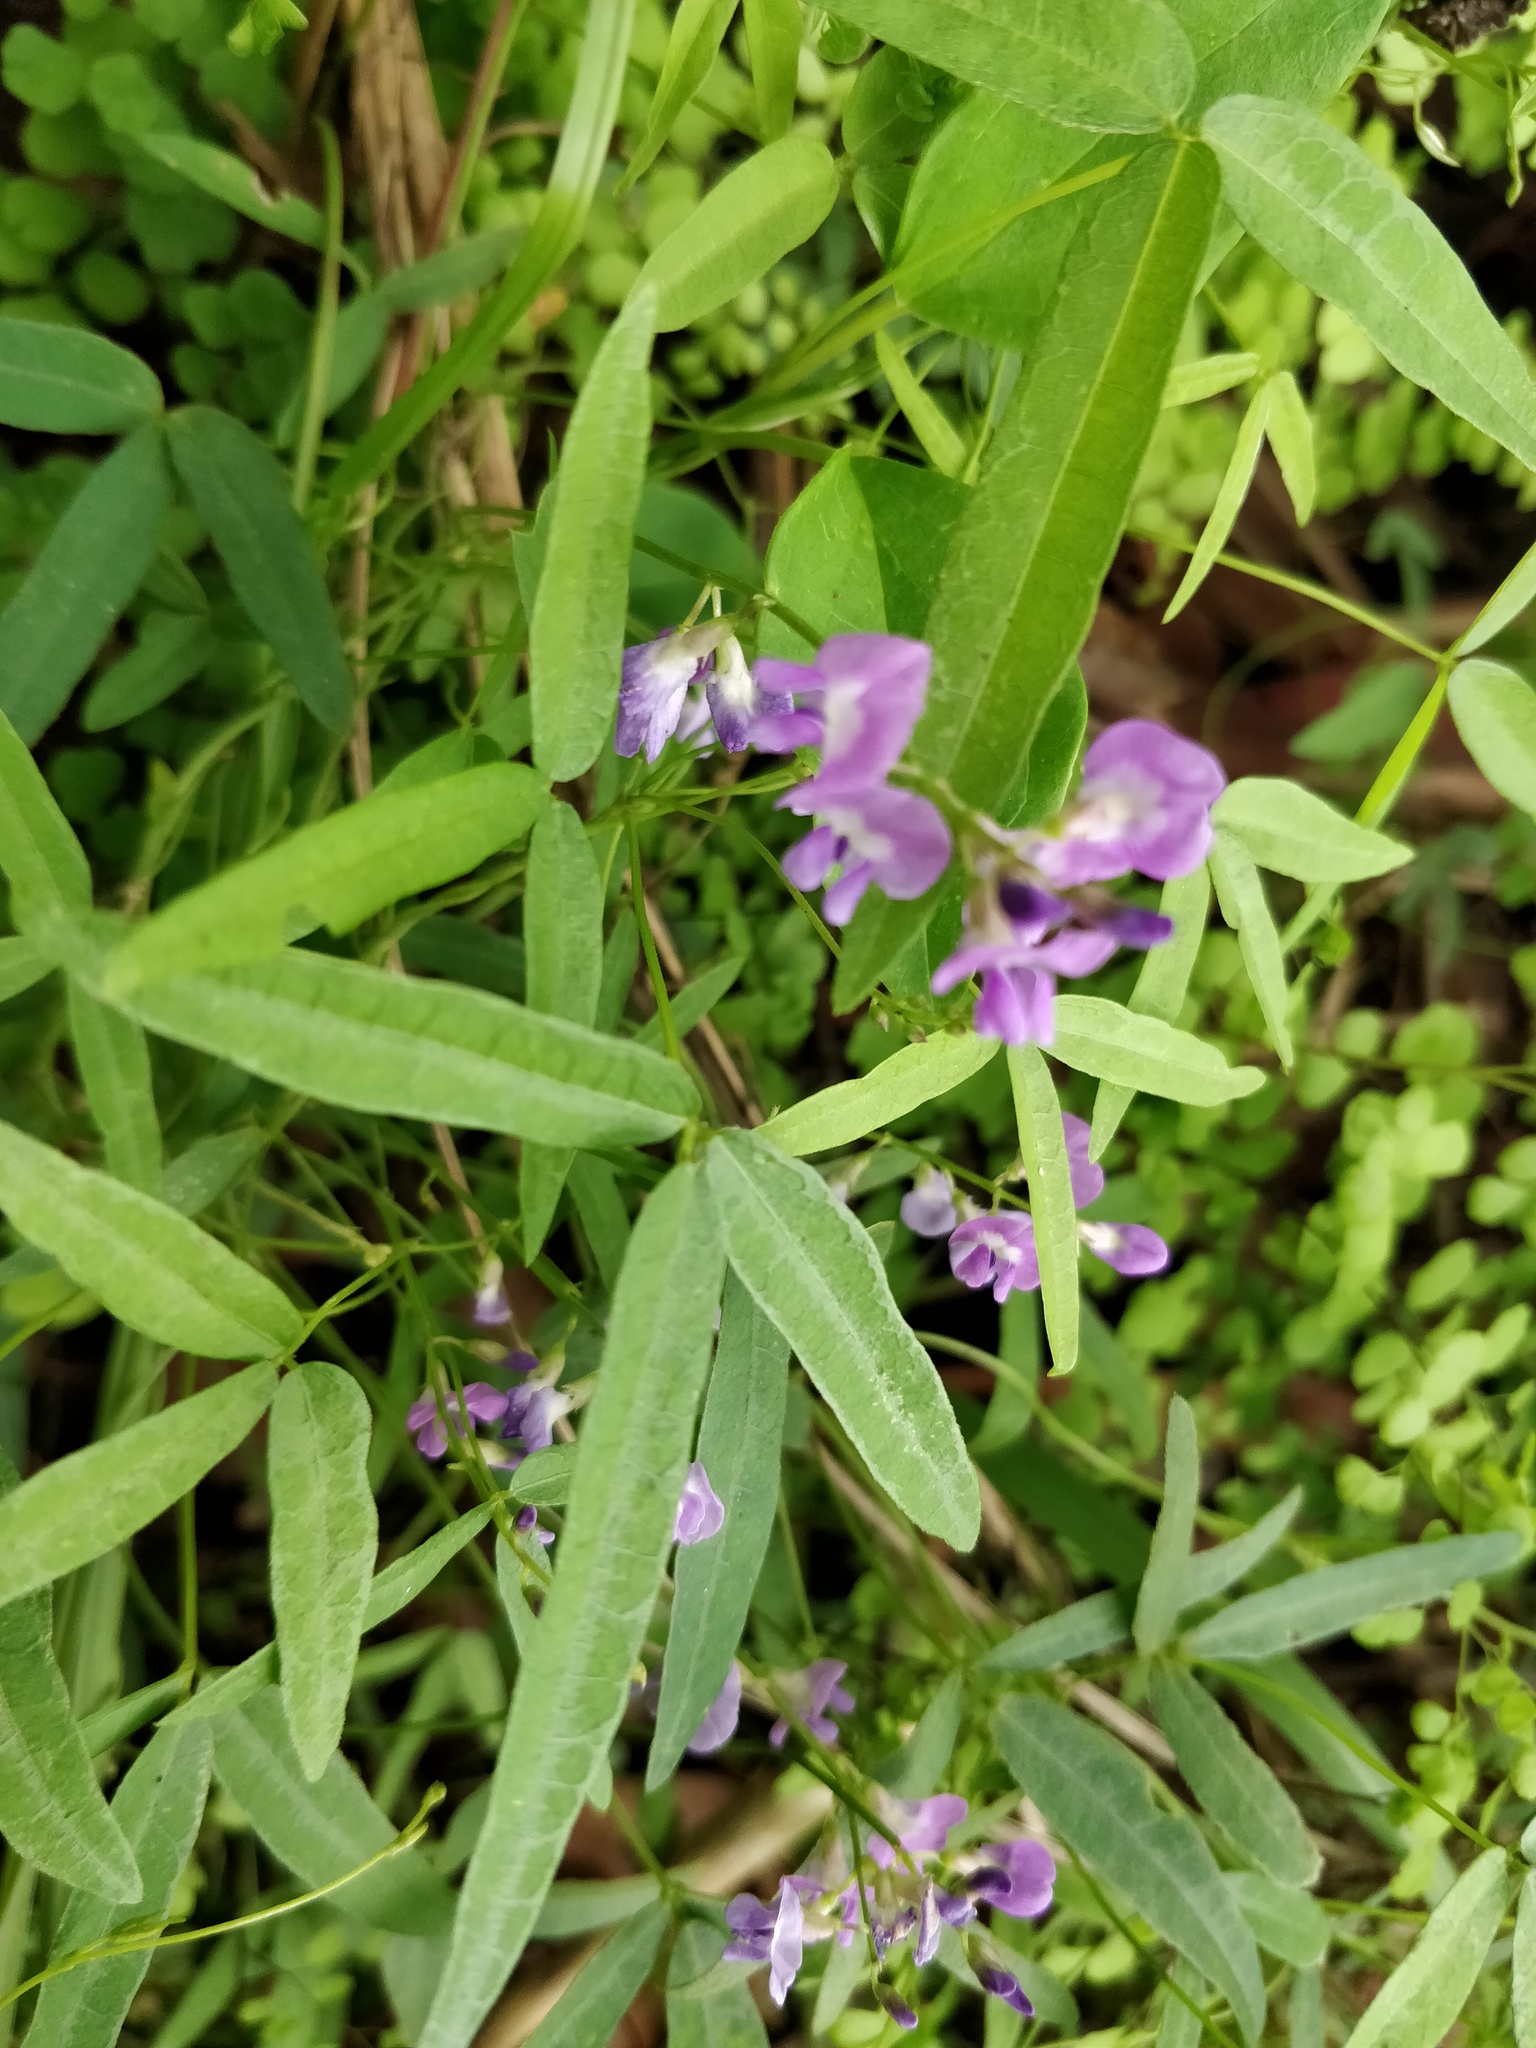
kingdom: Plantae
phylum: Tracheophyta
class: Magnoliopsida
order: Fabales
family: Fabaceae
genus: Glycine
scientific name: Glycine clandestina
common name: Twining glycine
